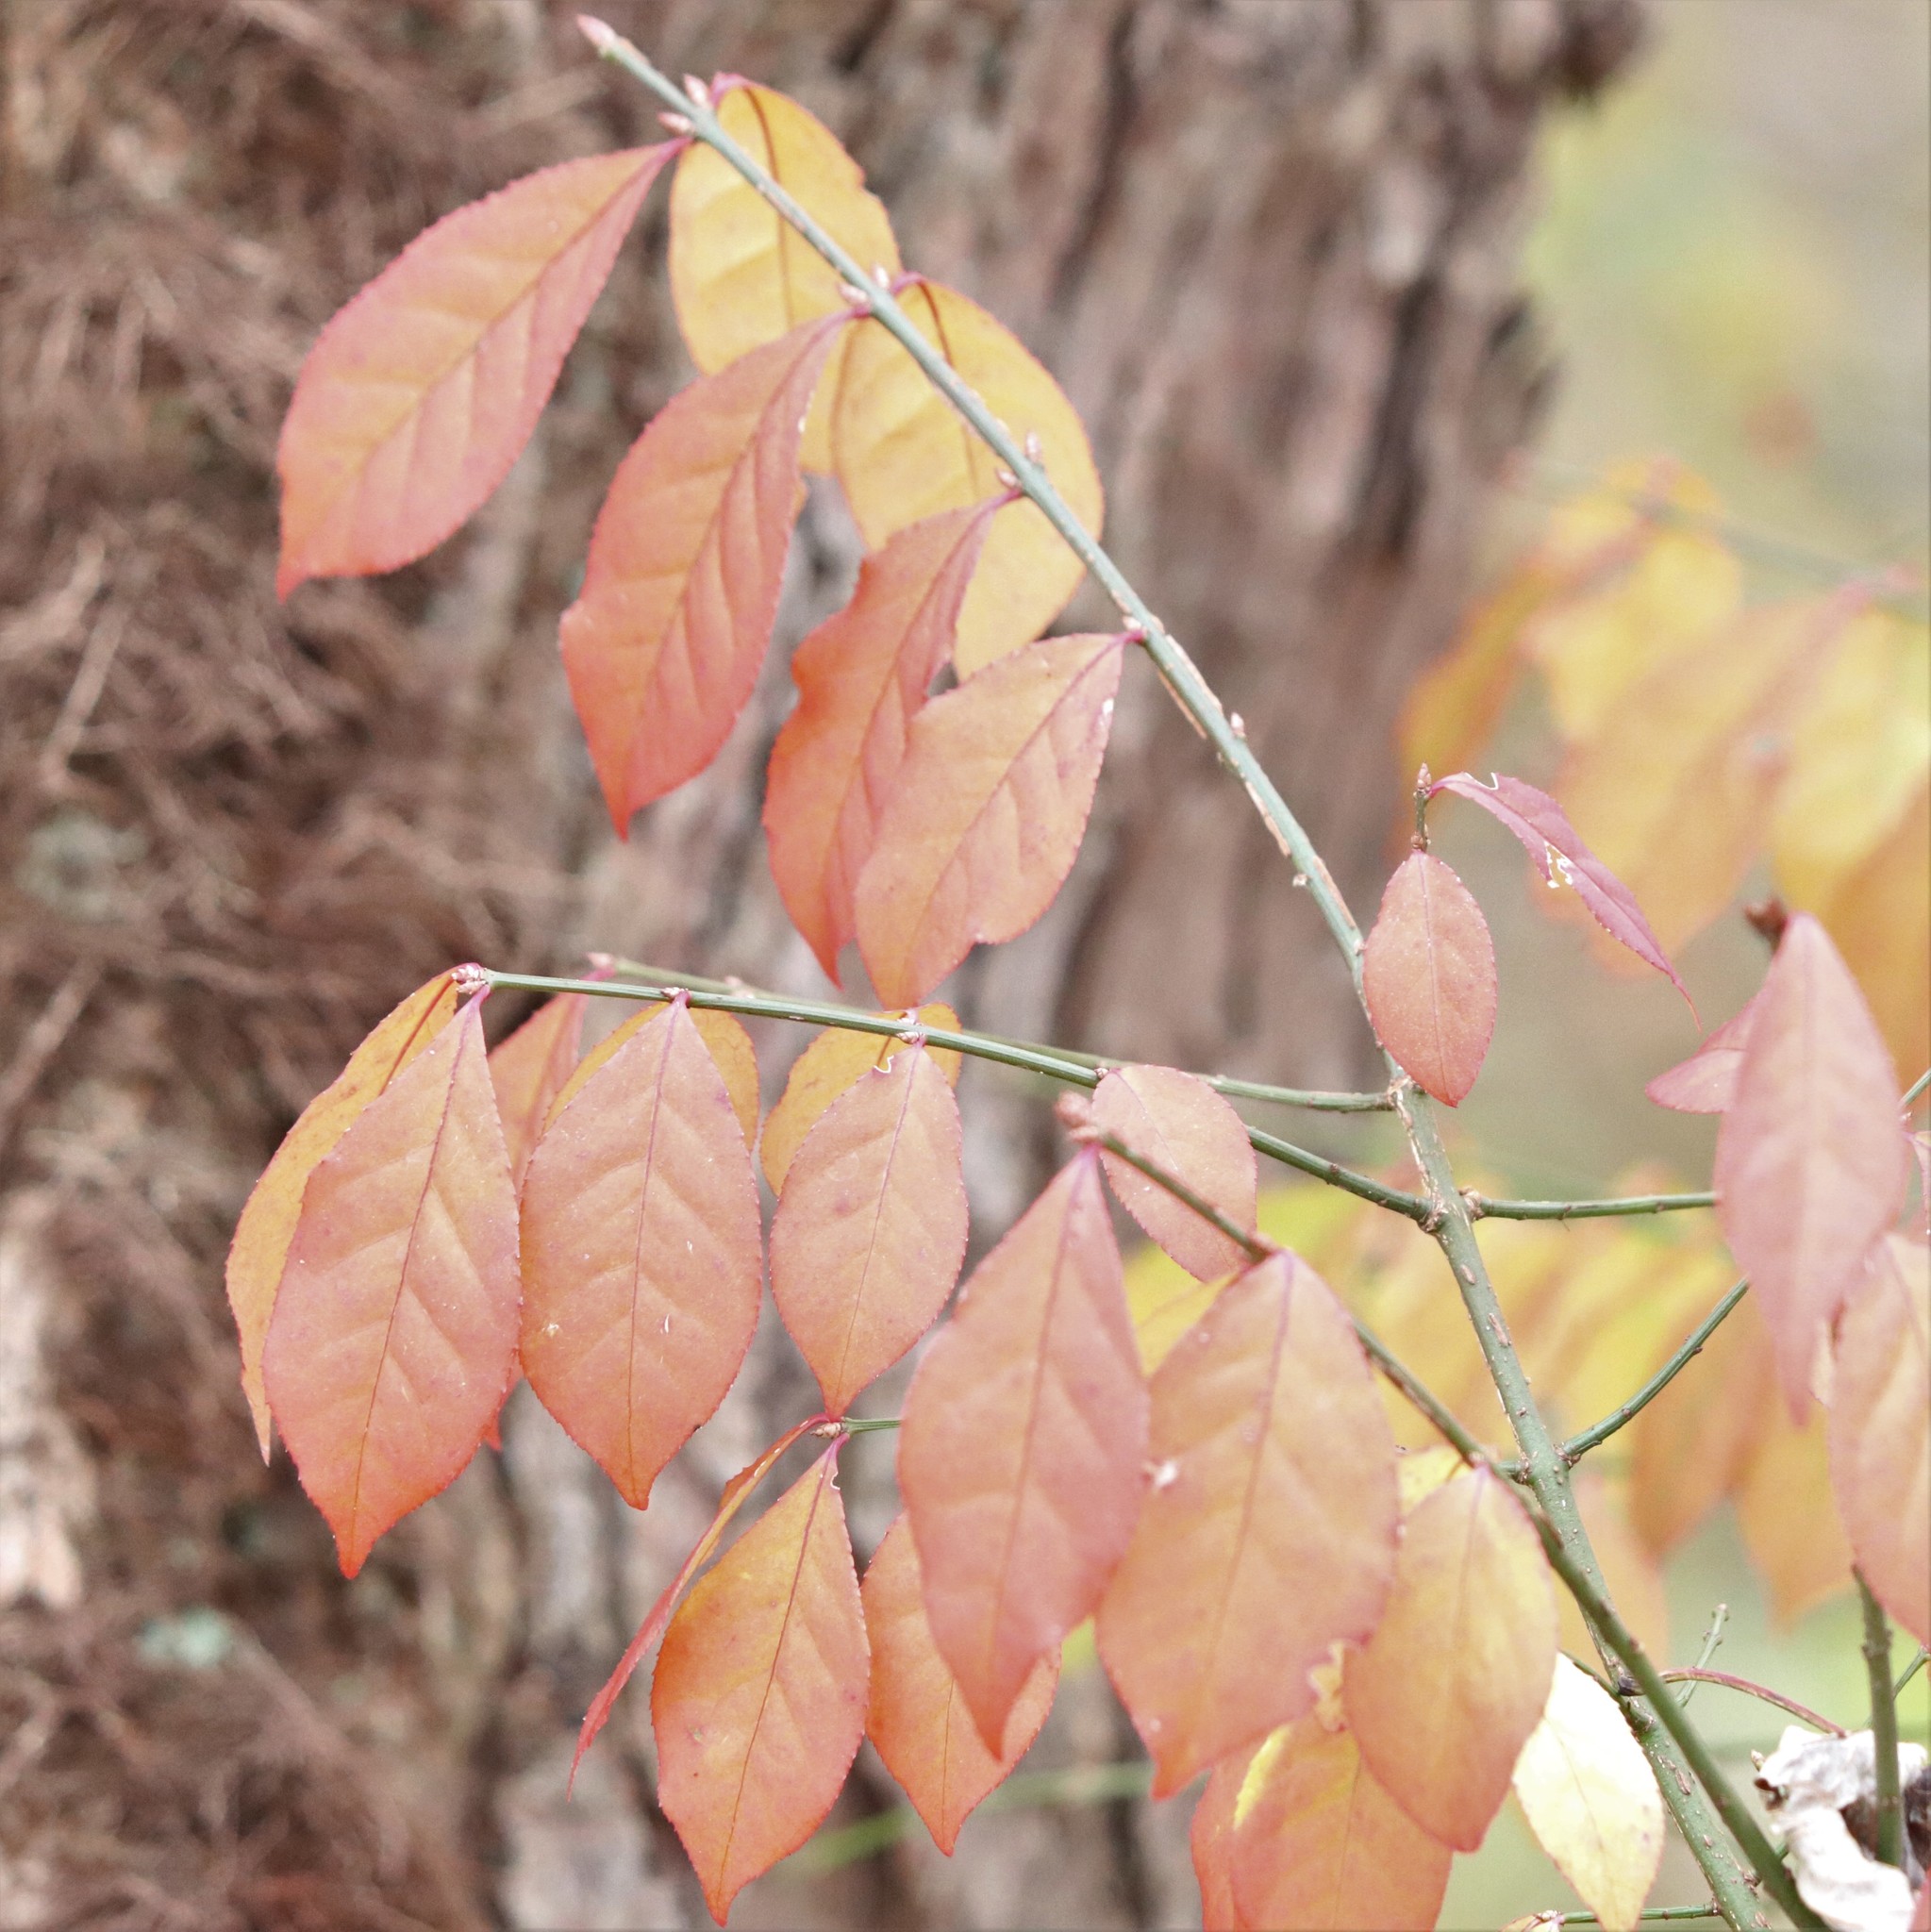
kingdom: Plantae
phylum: Tracheophyta
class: Magnoliopsida
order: Celastrales
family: Celastraceae
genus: Euonymus
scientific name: Euonymus alatus
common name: Winged euonymus
